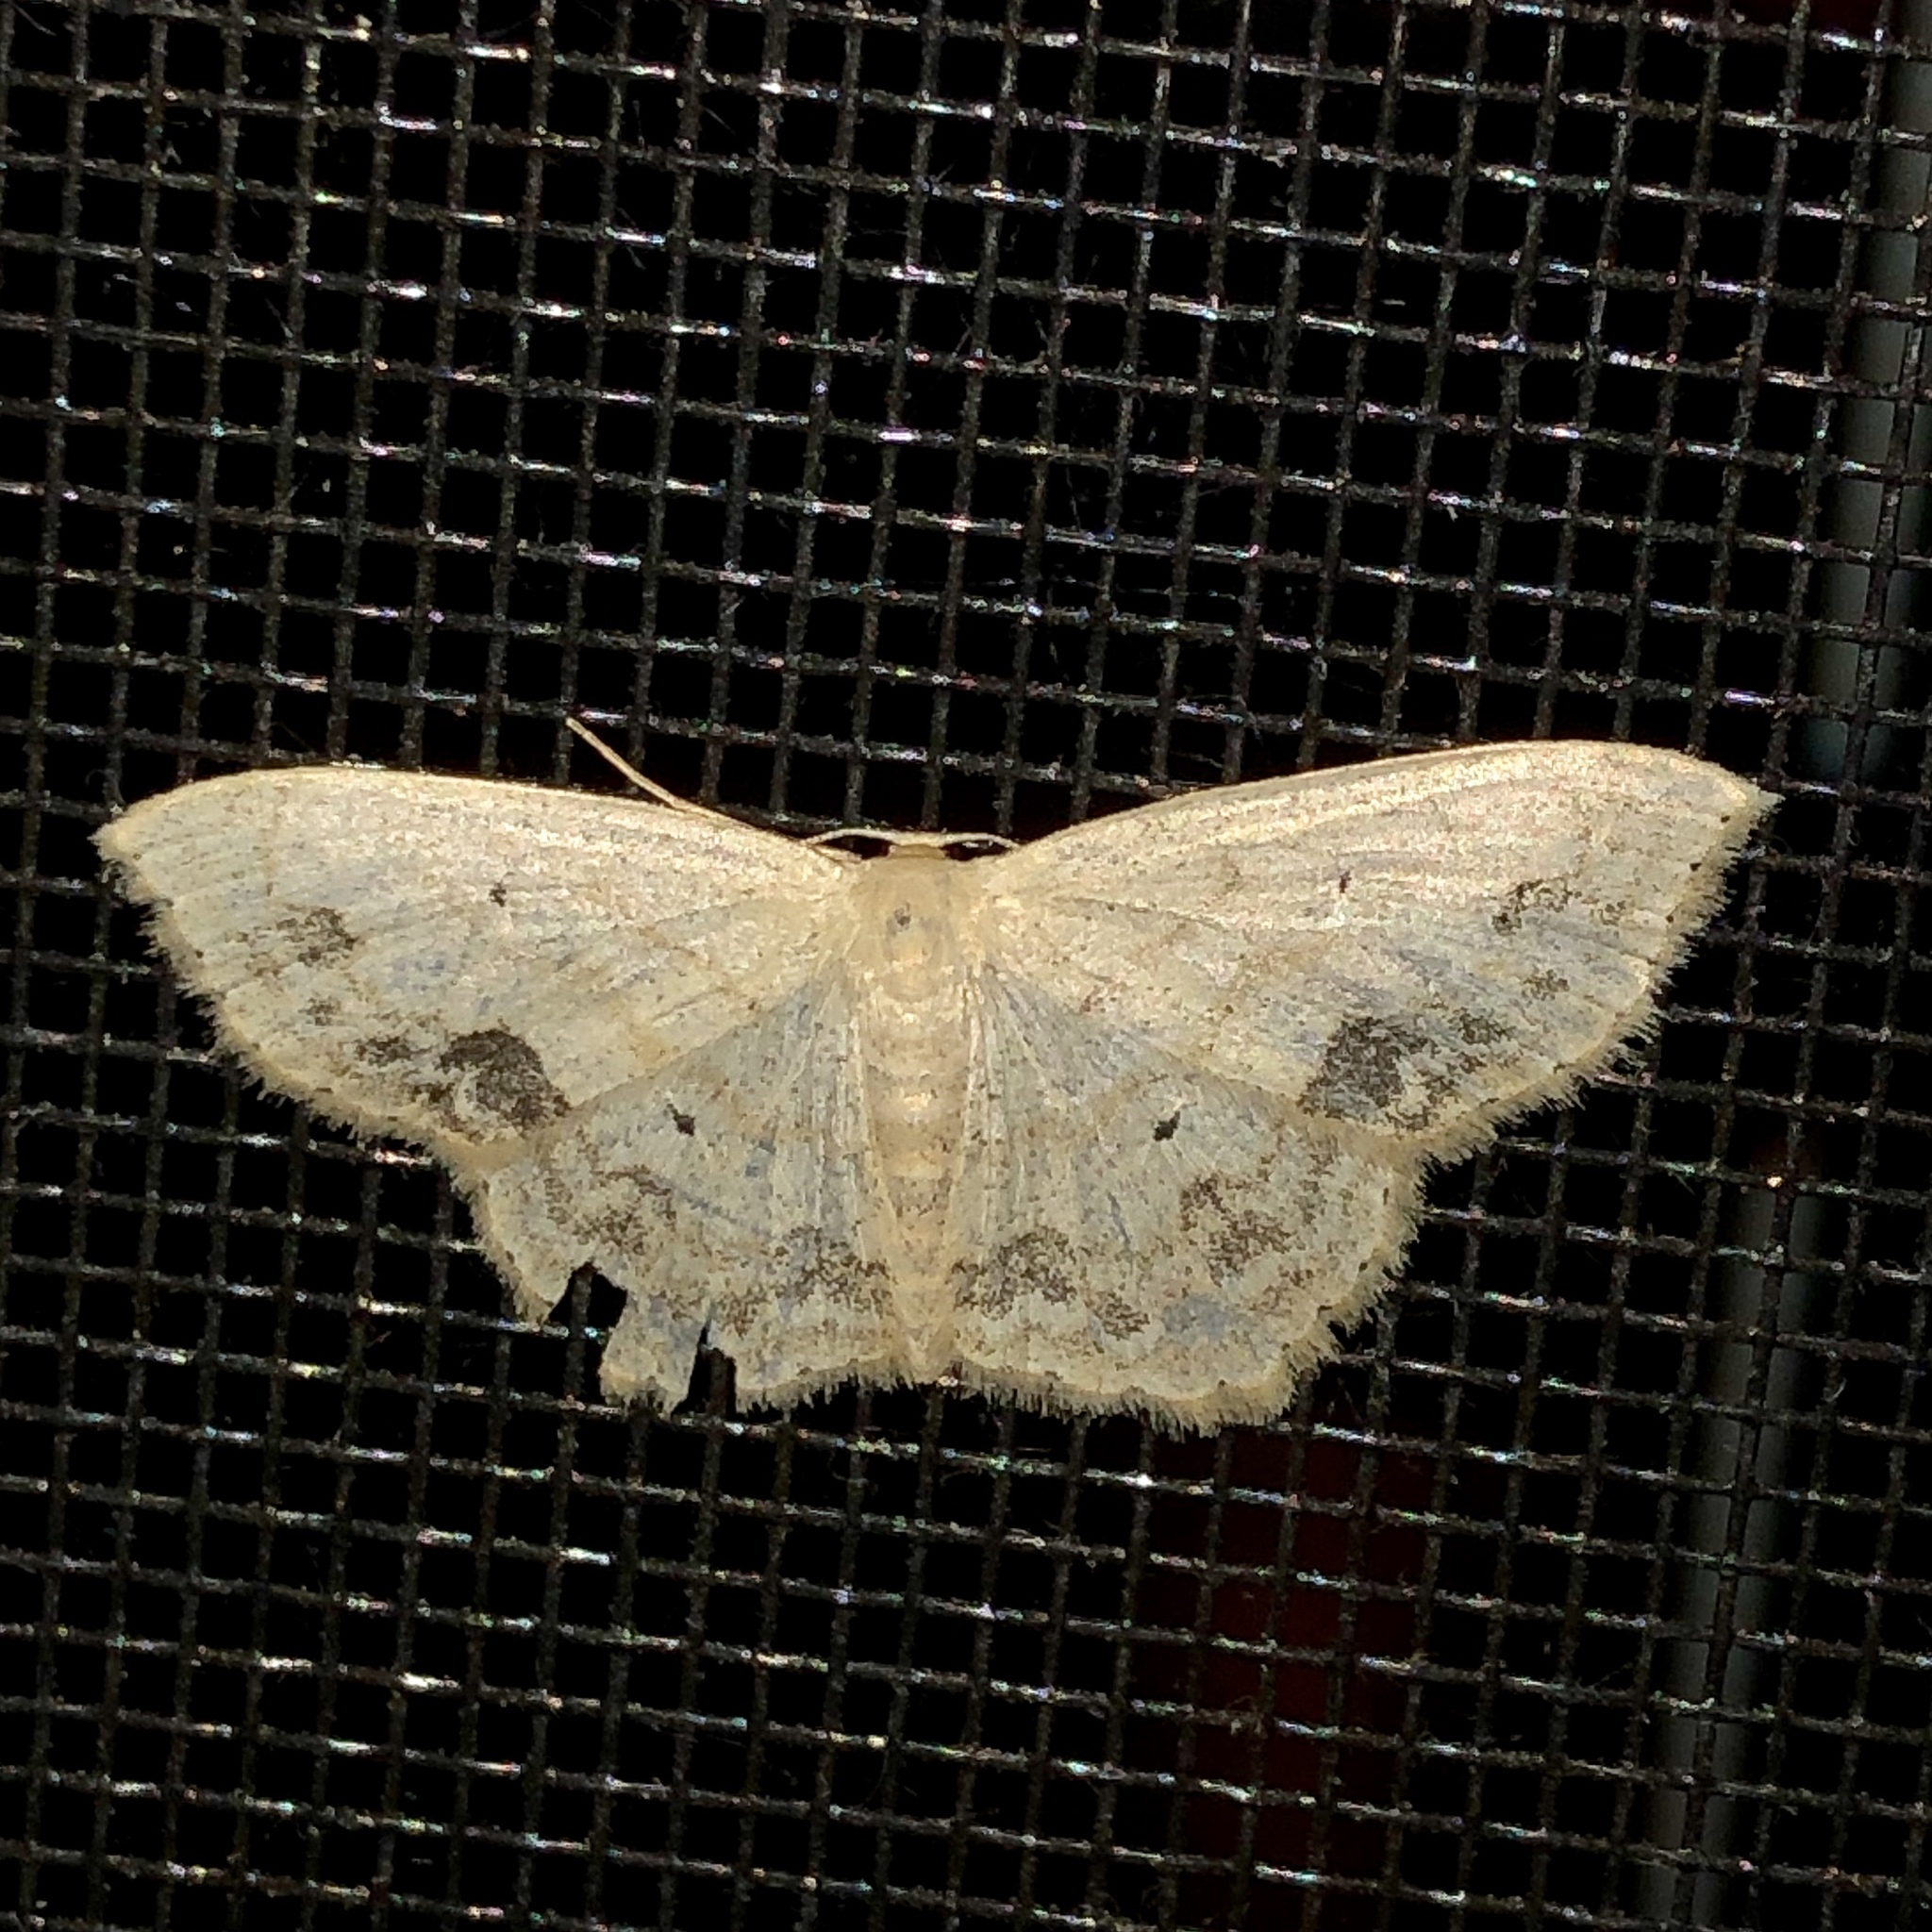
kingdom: Animalia
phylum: Arthropoda
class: Insecta
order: Lepidoptera
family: Geometridae
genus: Scopula
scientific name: Scopula limboundata
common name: Large lace border
